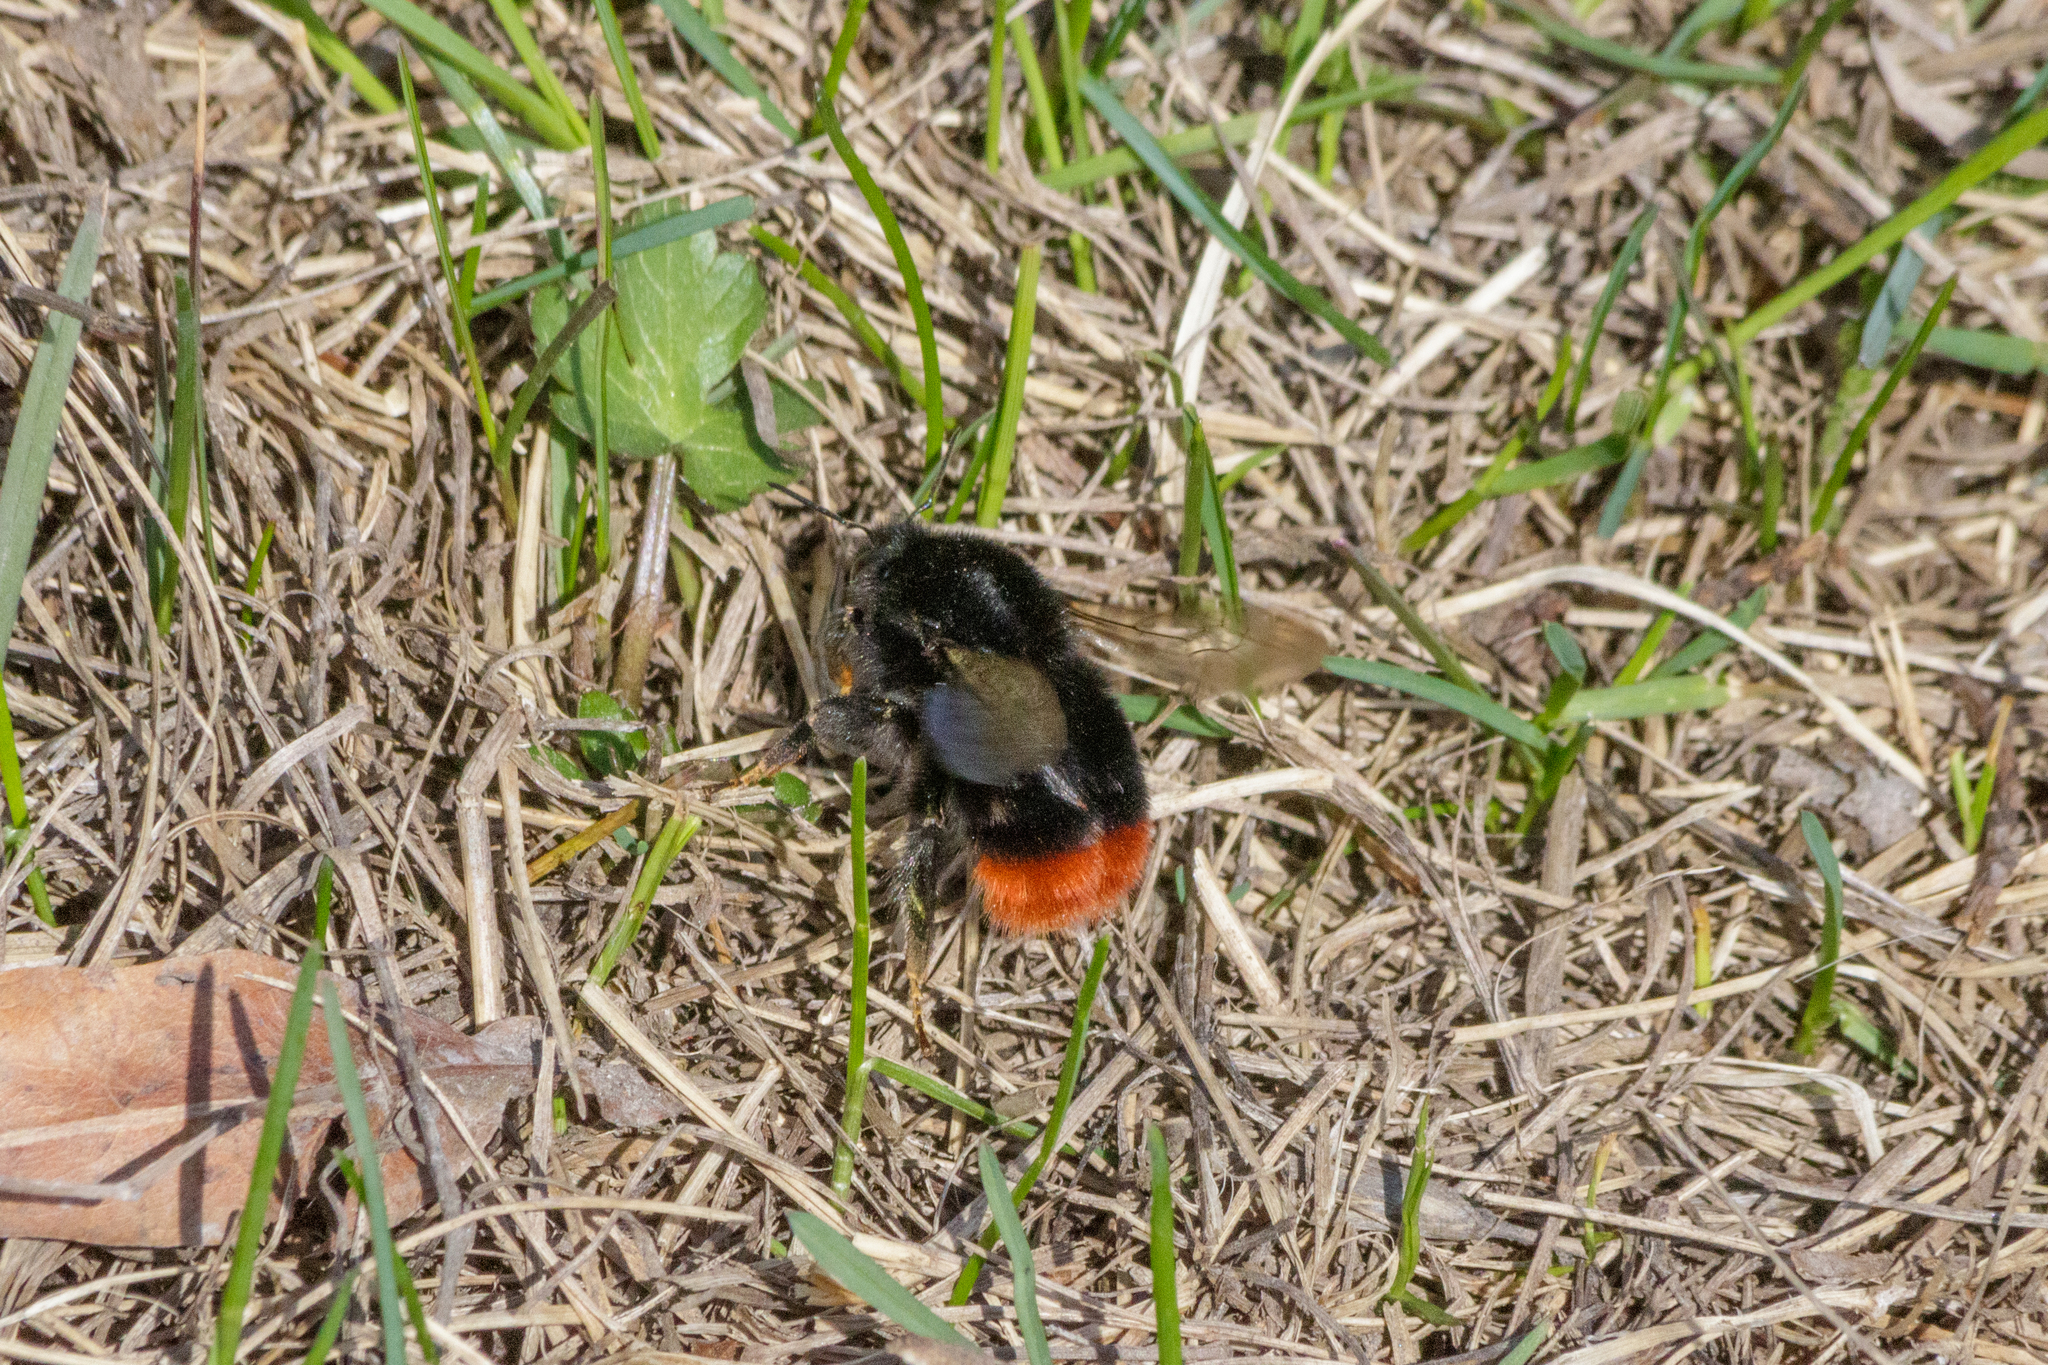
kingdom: Animalia
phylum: Arthropoda
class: Insecta
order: Hymenoptera
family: Apidae
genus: Bombus
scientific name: Bombus lapidarius
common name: Large red-tailed humble-bee
